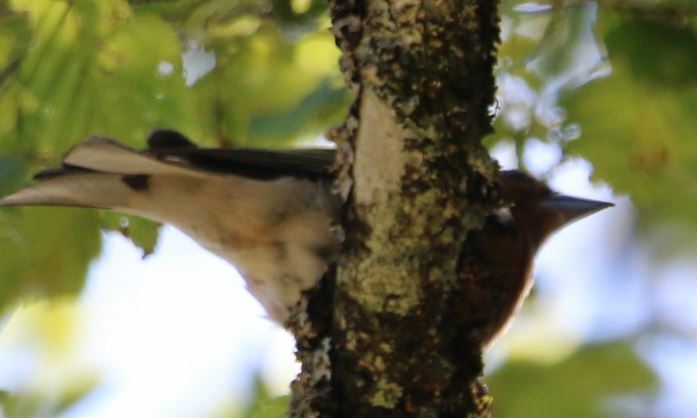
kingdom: Animalia
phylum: Chordata
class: Aves
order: Passeriformes
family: Fringillidae
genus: Fringilla
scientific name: Fringilla coelebs
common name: Common chaffinch
